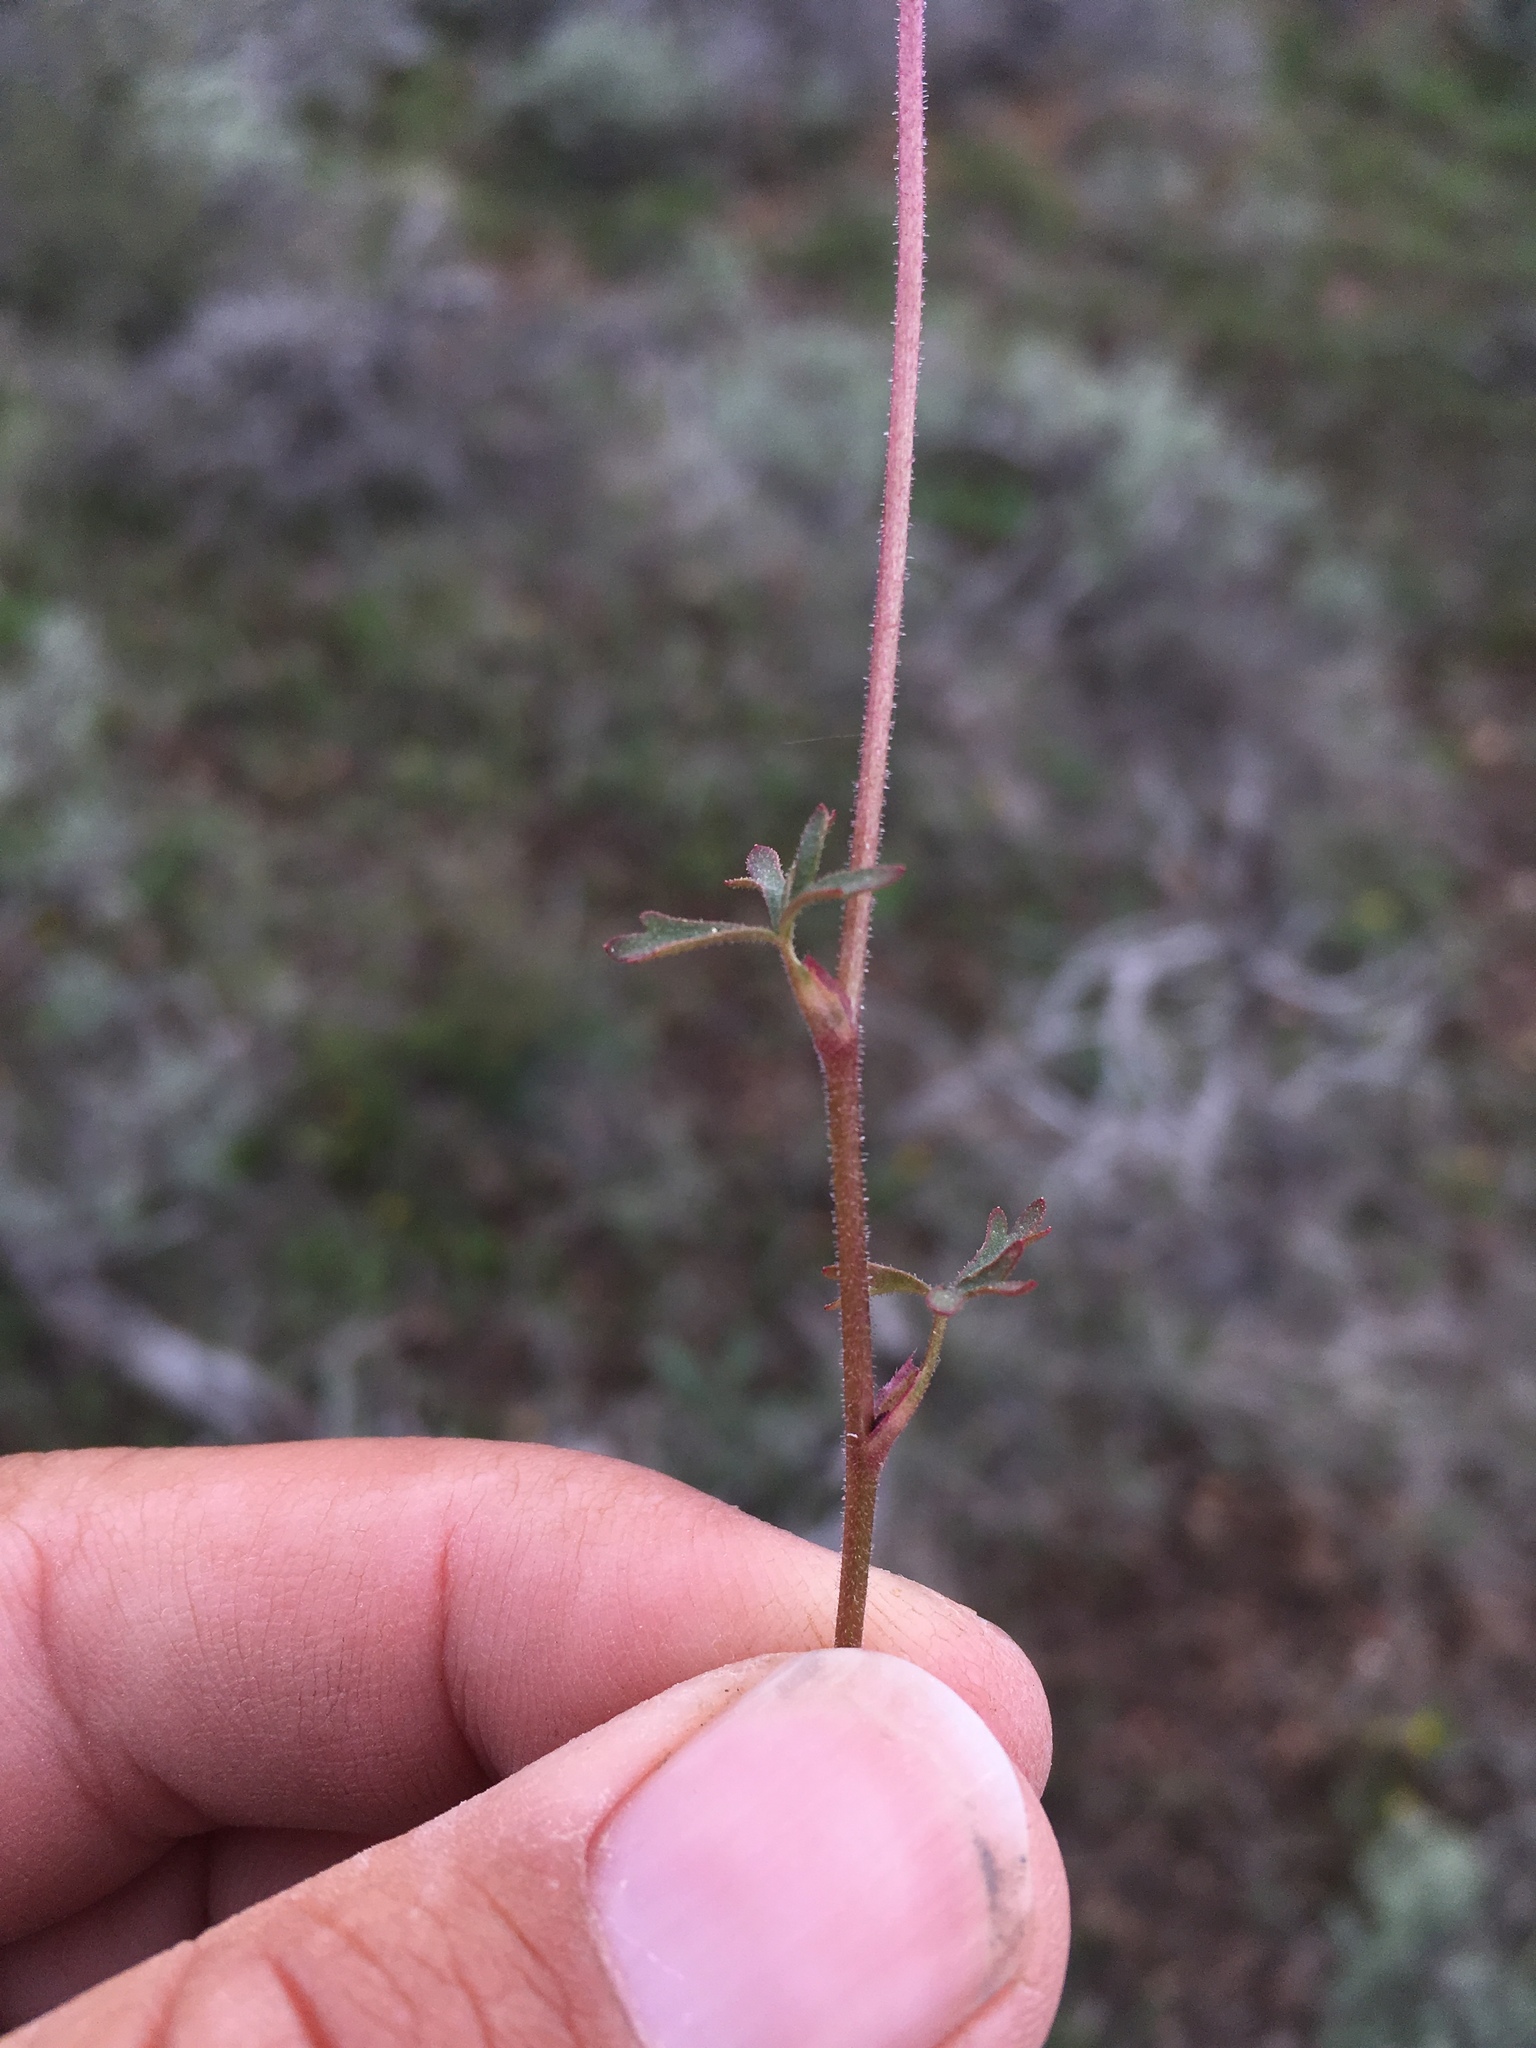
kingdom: Plantae
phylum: Tracheophyta
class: Magnoliopsida
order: Saxifragales
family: Saxifragaceae
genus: Lithophragma
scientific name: Lithophragma glabrum
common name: Bulbous prairie-star
